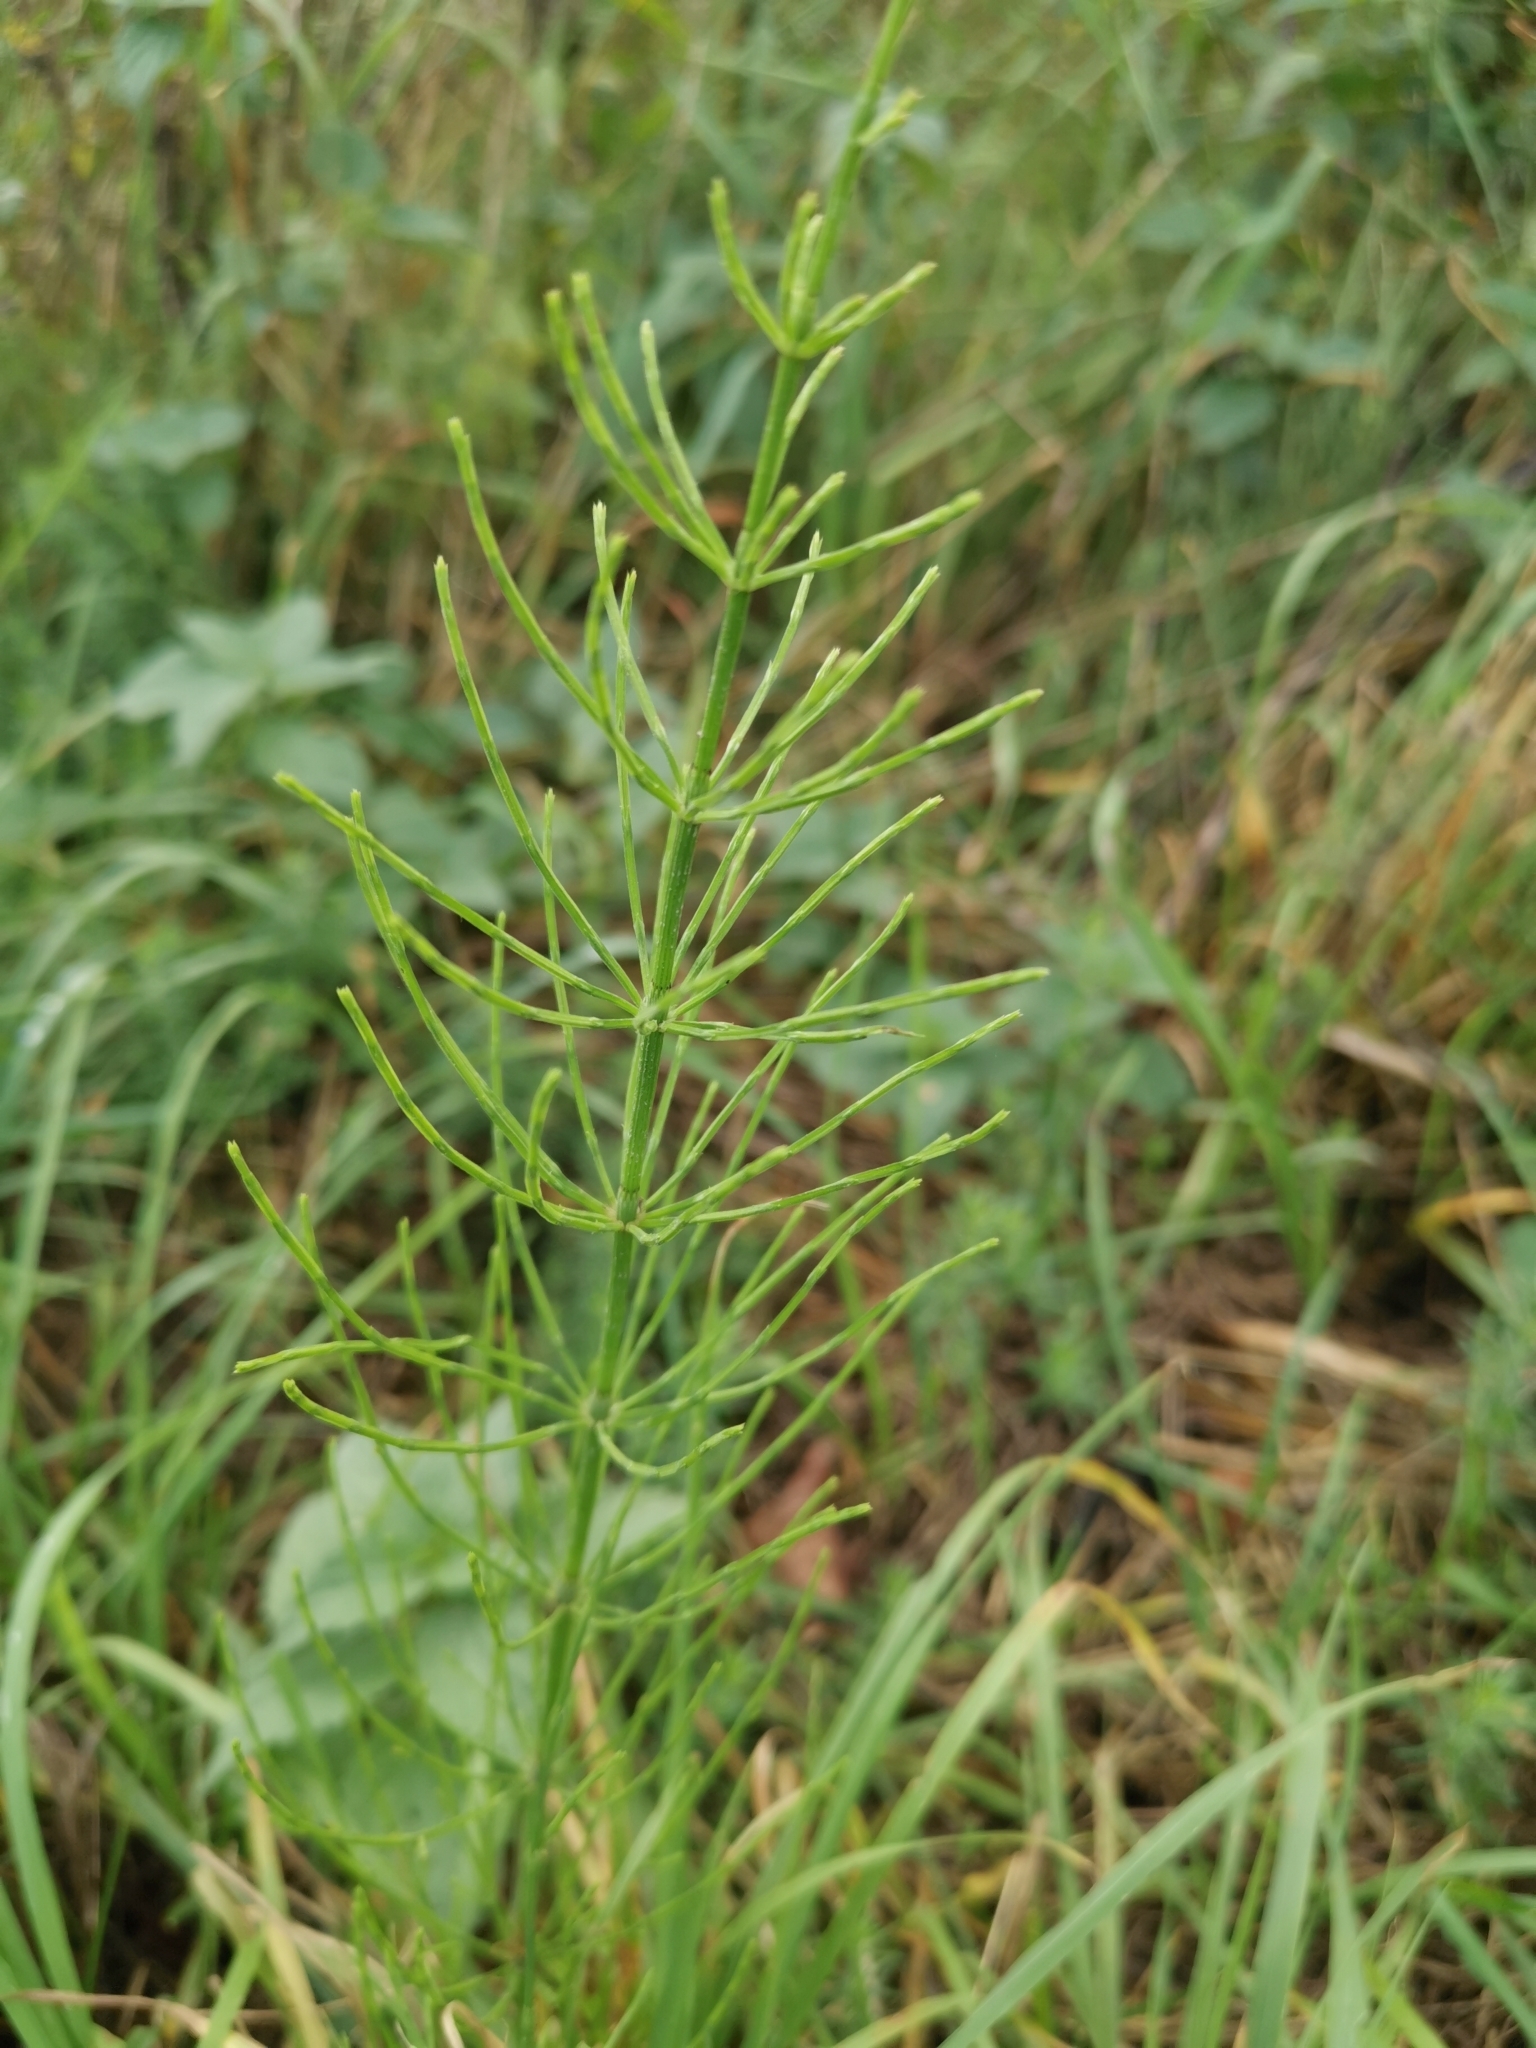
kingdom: Plantae
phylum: Tracheophyta
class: Polypodiopsida
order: Equisetales
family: Equisetaceae
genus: Equisetum
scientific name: Equisetum arvense
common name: Field horsetail
